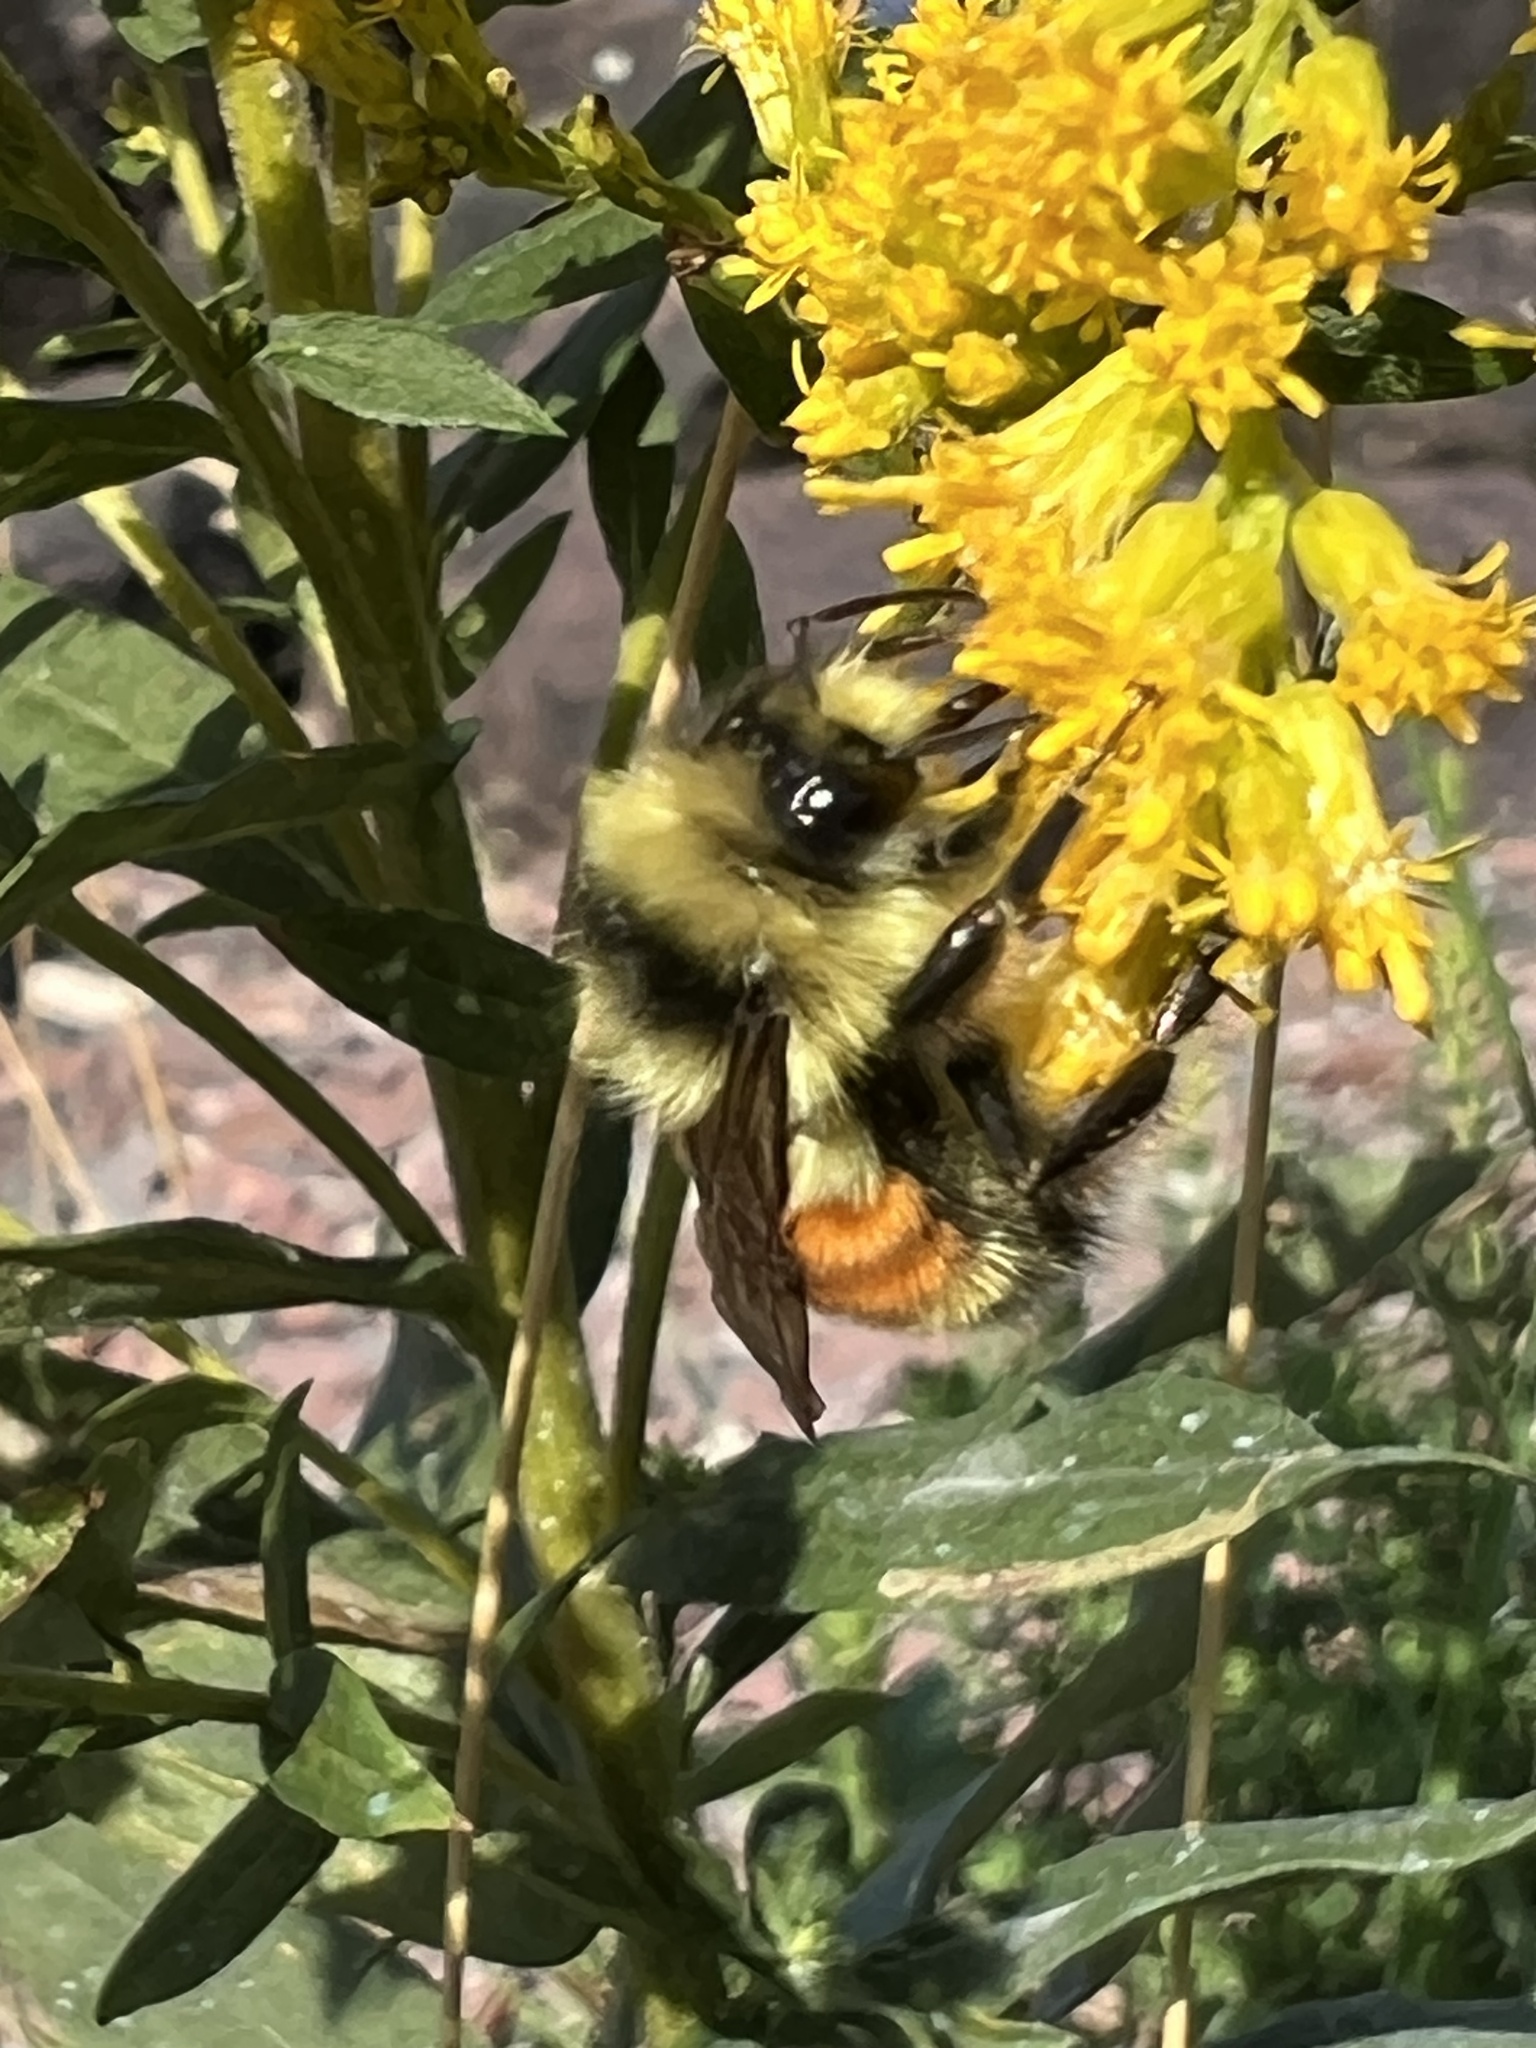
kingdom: Animalia
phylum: Arthropoda
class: Insecta
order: Hymenoptera
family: Apidae
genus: Bombus
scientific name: Bombus ternarius
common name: Tri-colored bumble bee
